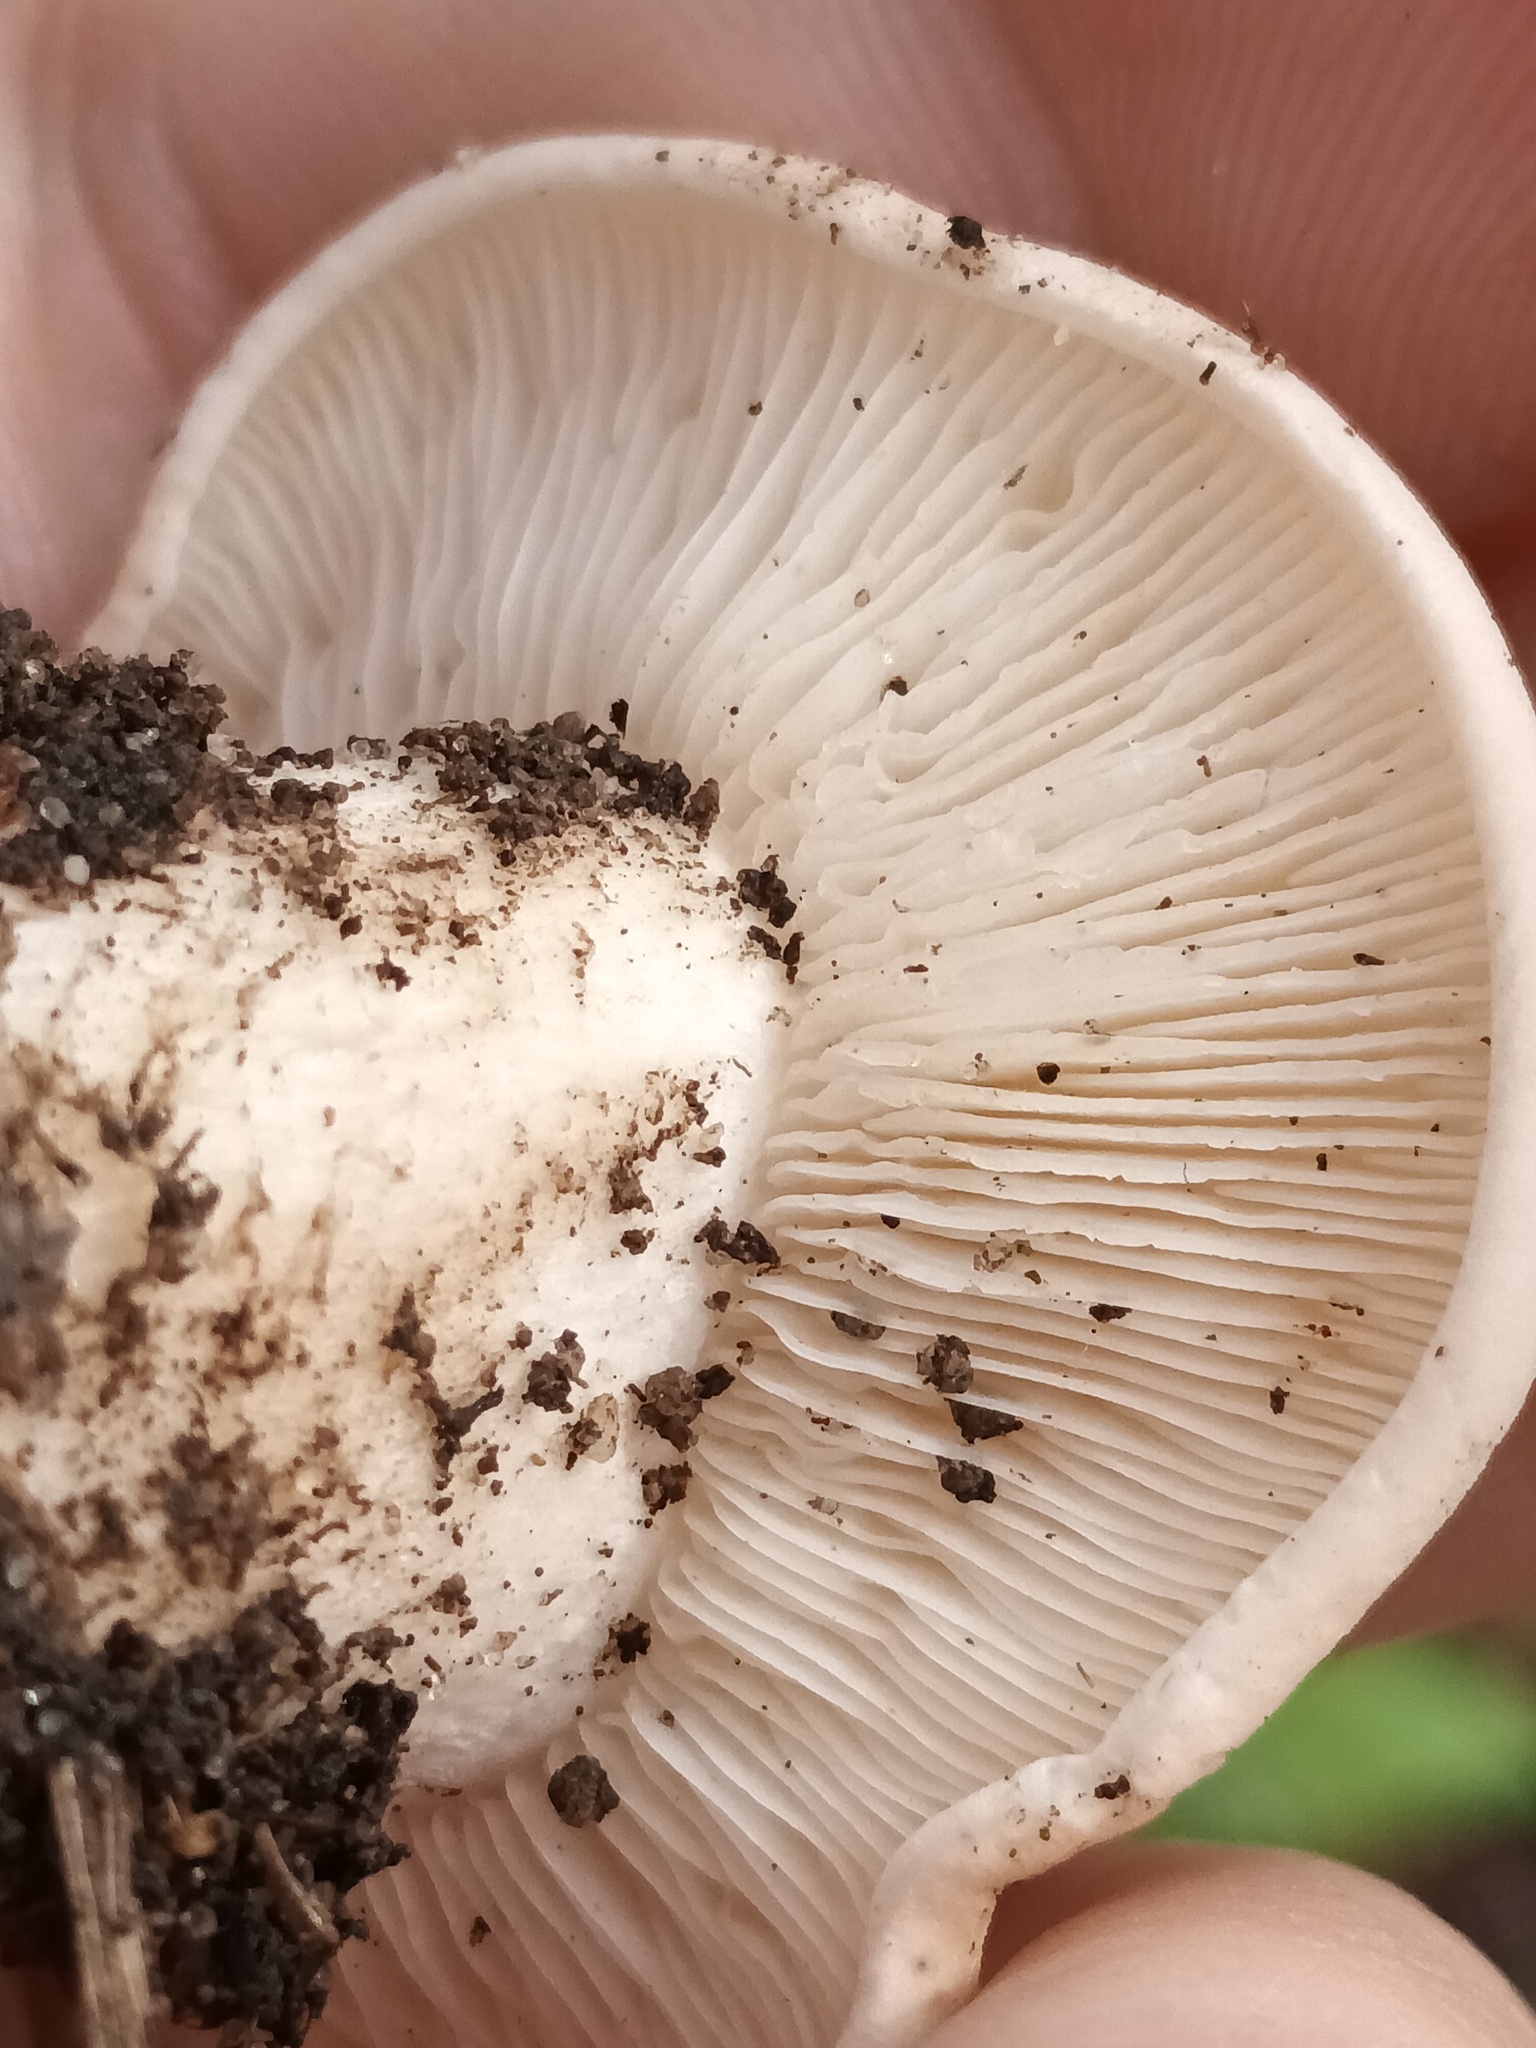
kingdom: Fungi
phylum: Basidiomycota
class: Agaricomycetes
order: Agaricales
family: Lyophyllaceae
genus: Calocybe
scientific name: Calocybe gambosa
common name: St. george's mushroom
